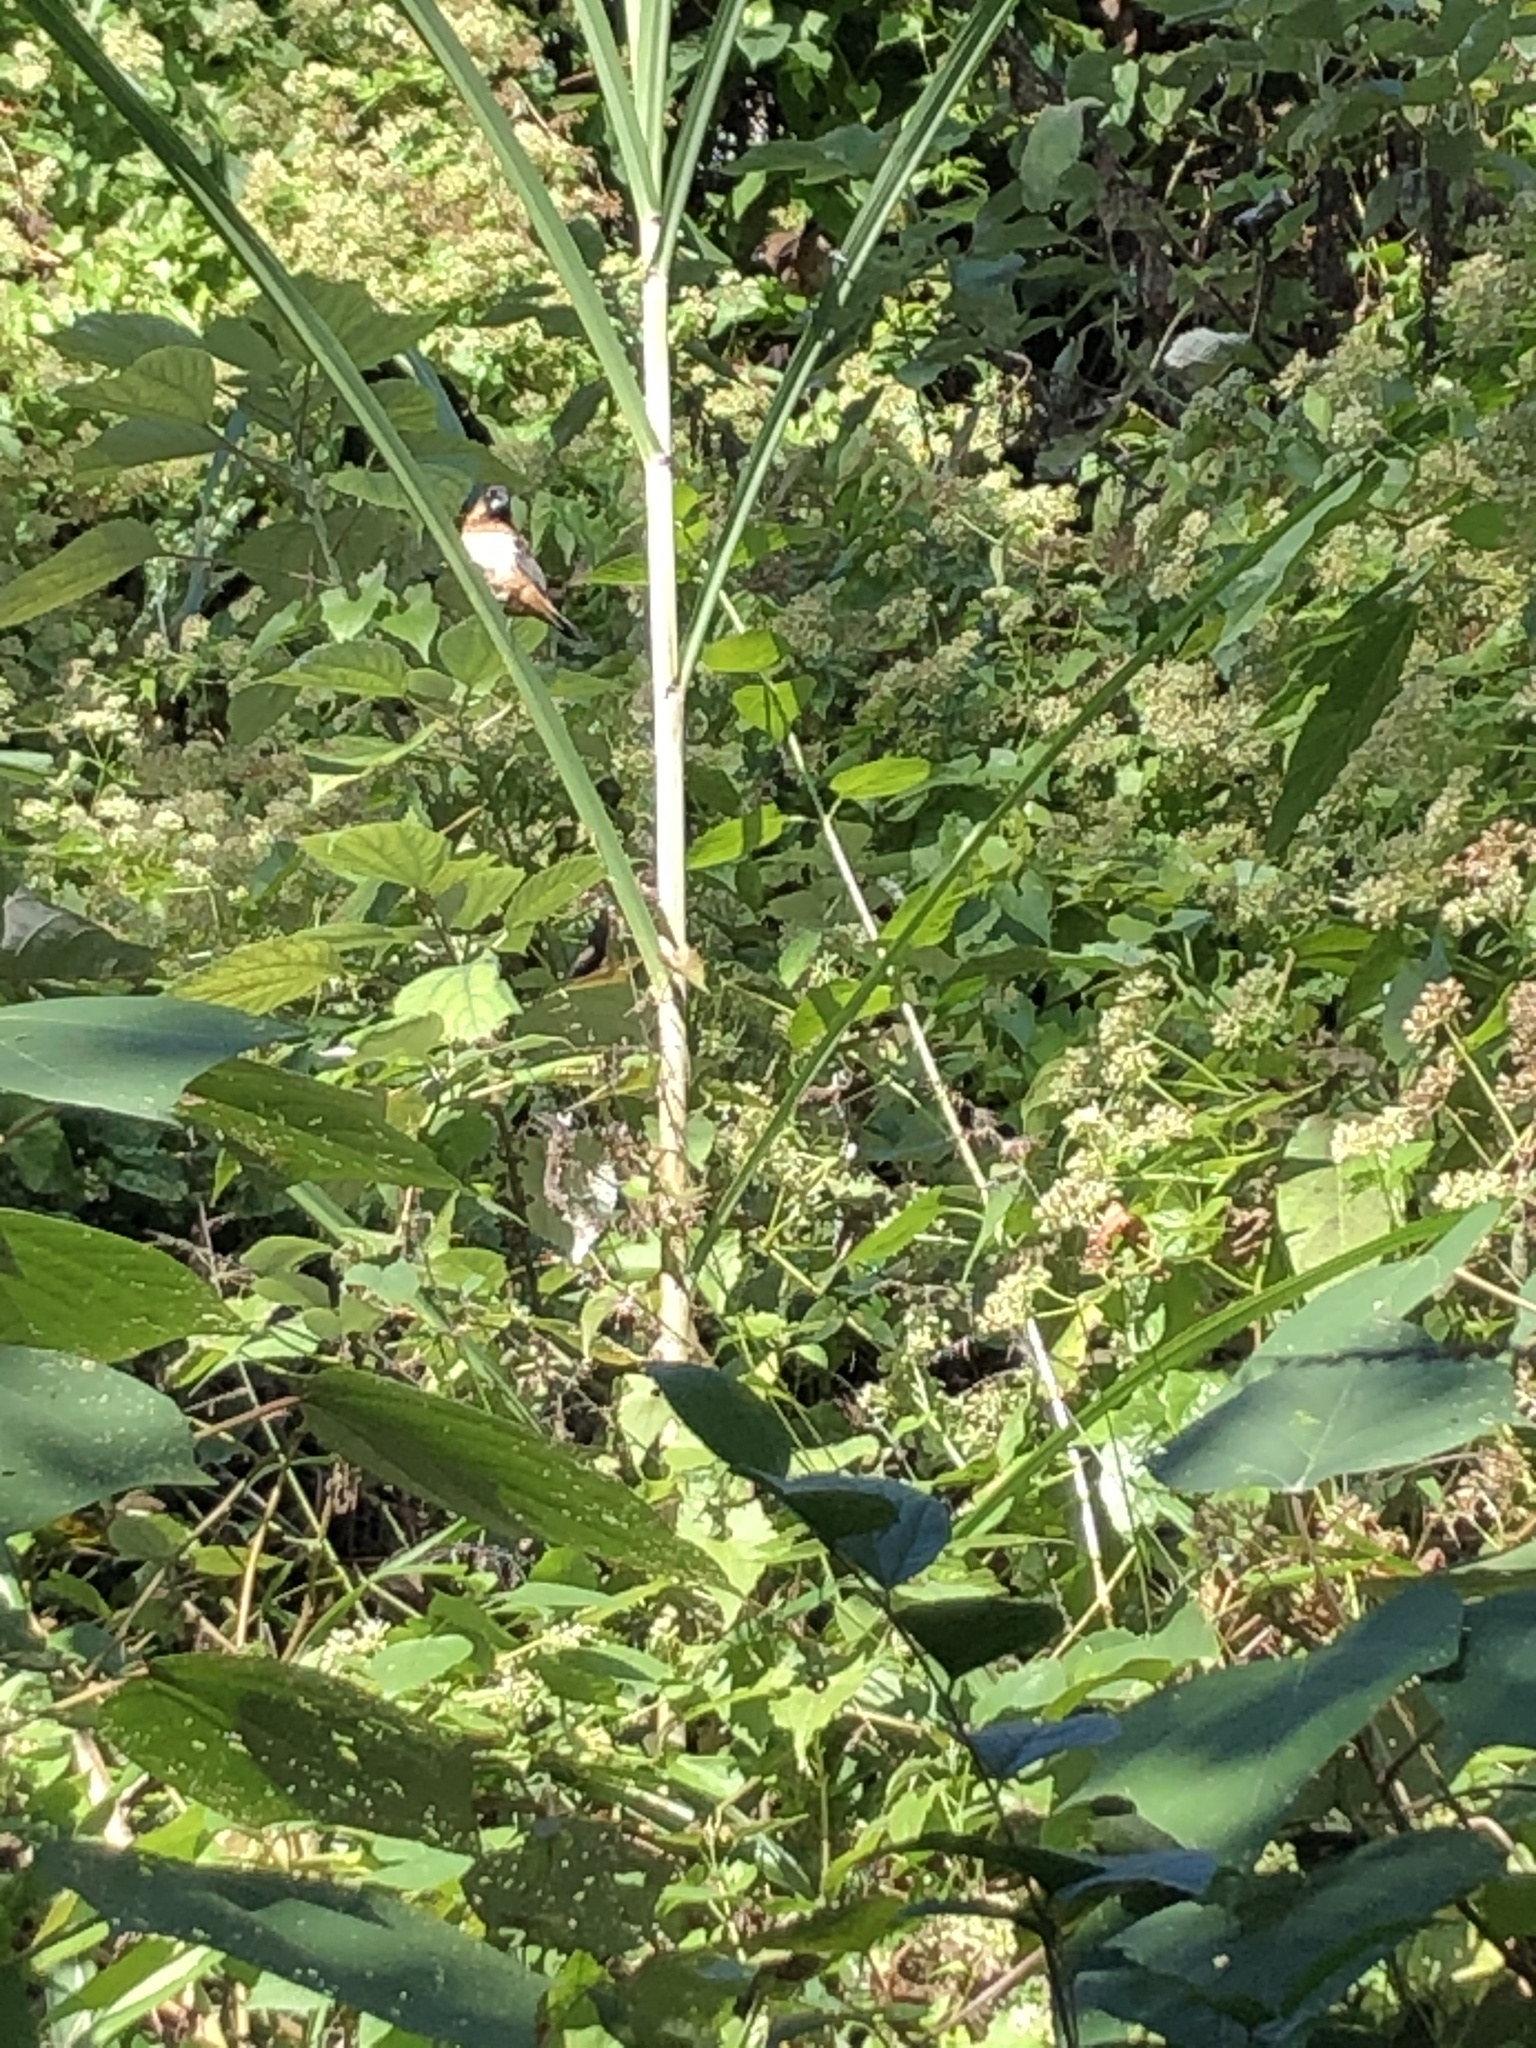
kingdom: Animalia
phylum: Chordata
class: Aves
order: Passeriformes
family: Estrildidae
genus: Lonchura
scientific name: Lonchura striata
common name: White-rumped munia
